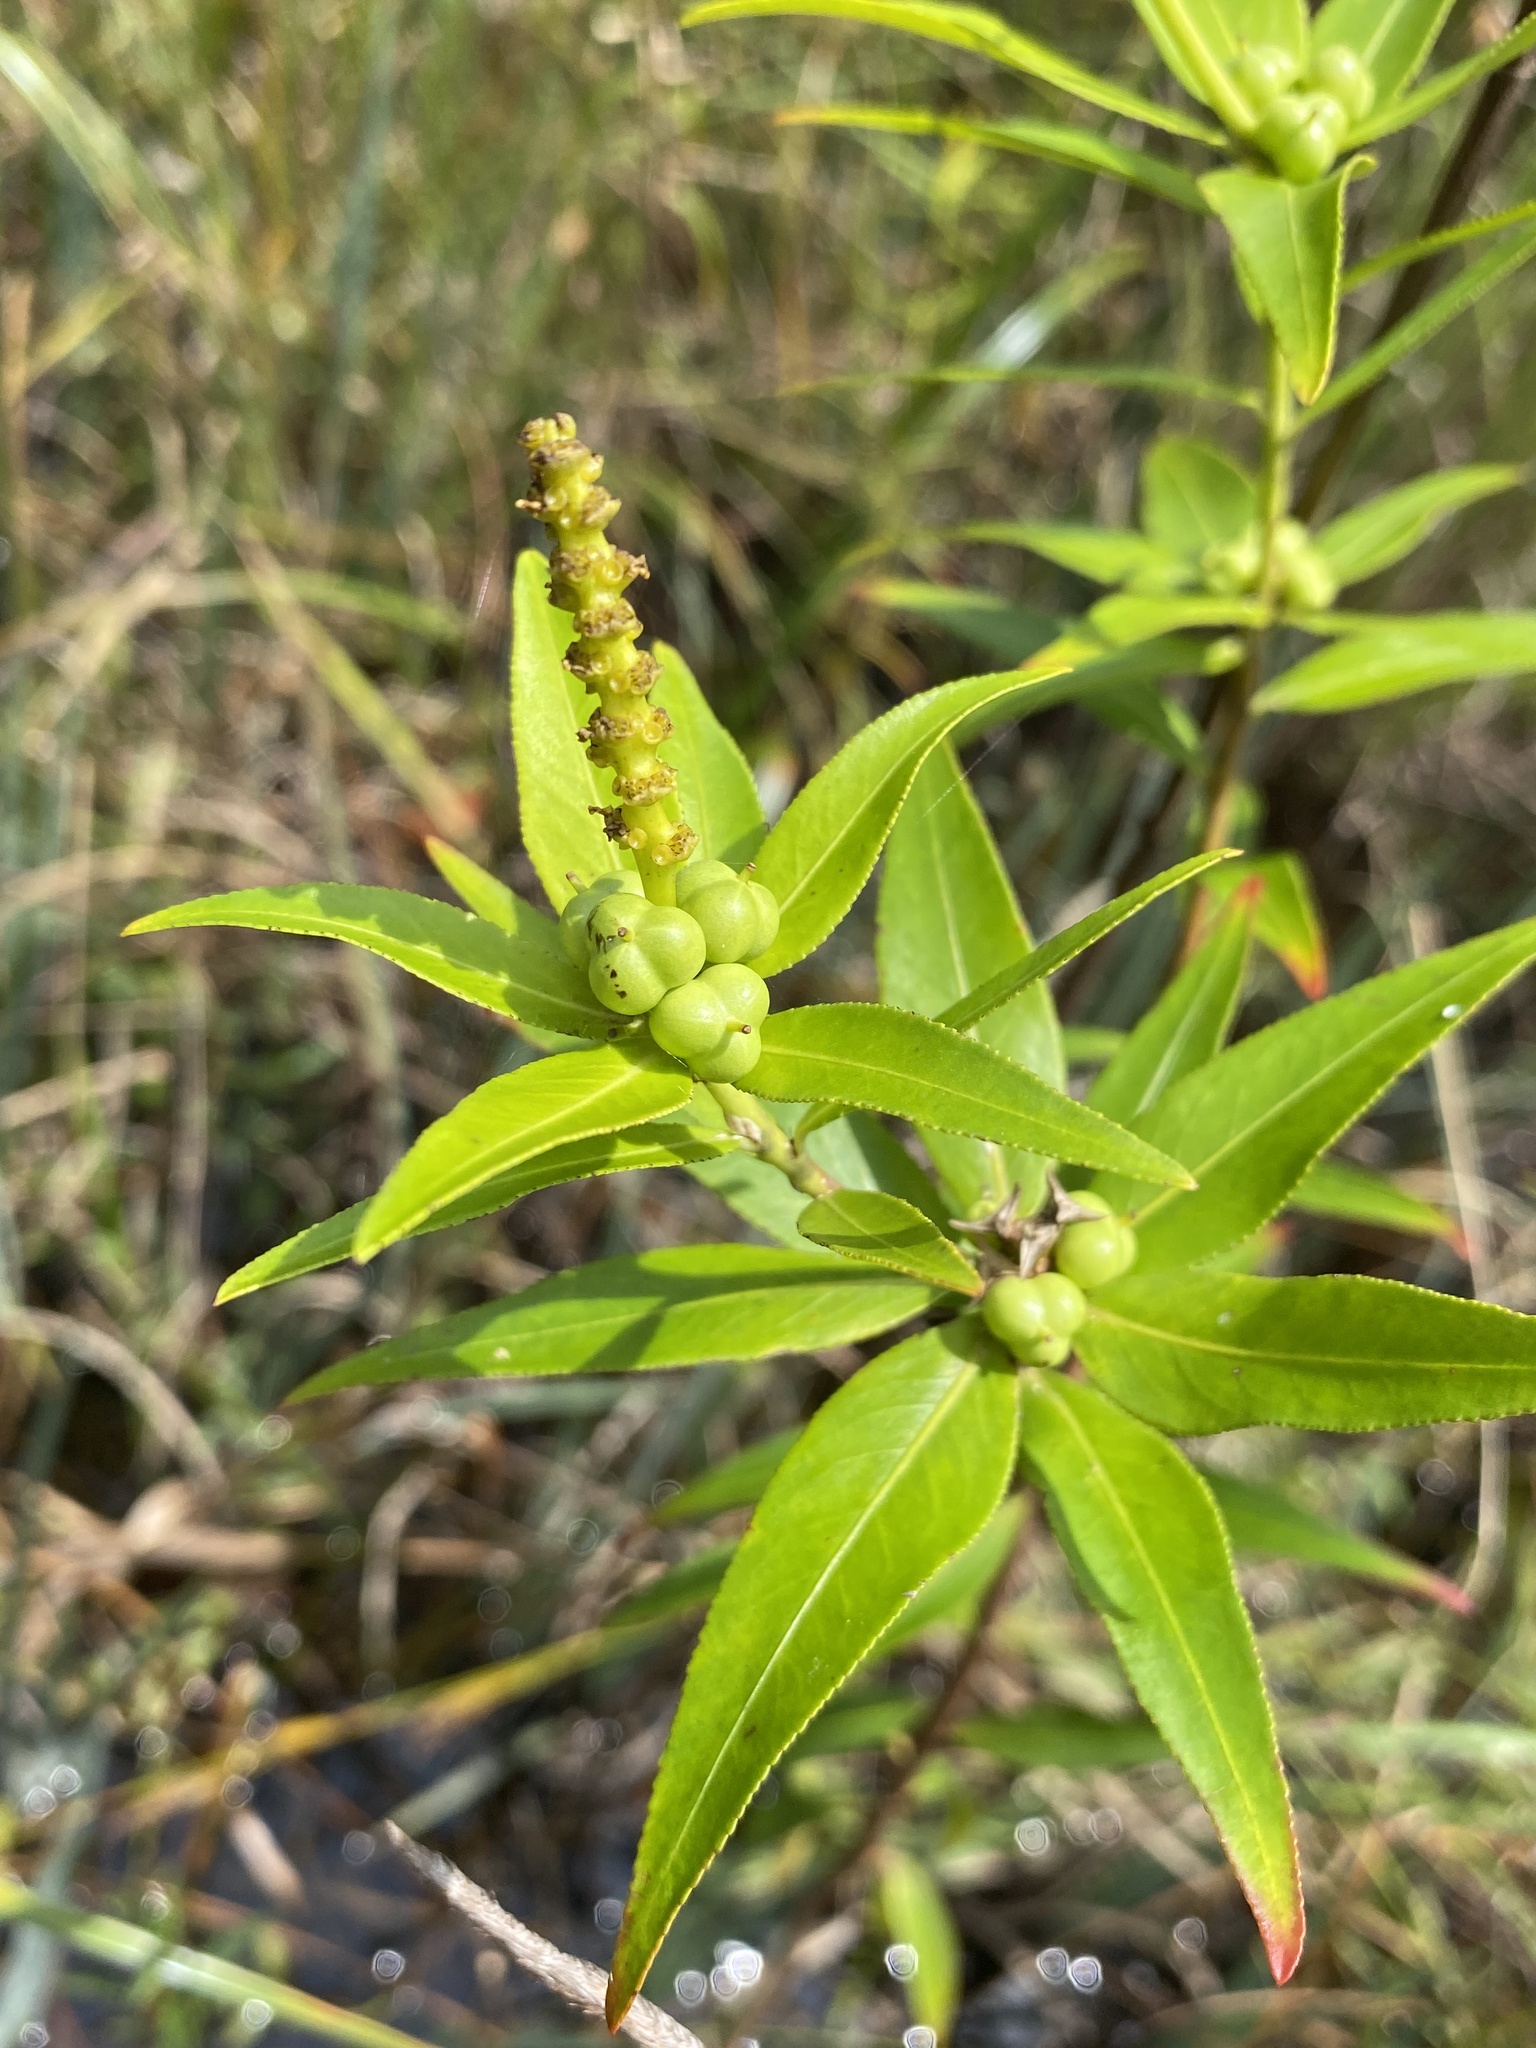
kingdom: Plantae
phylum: Tracheophyta
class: Magnoliopsida
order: Malpighiales
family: Euphorbiaceae
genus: Stillingia
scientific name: Stillingia aquatica
